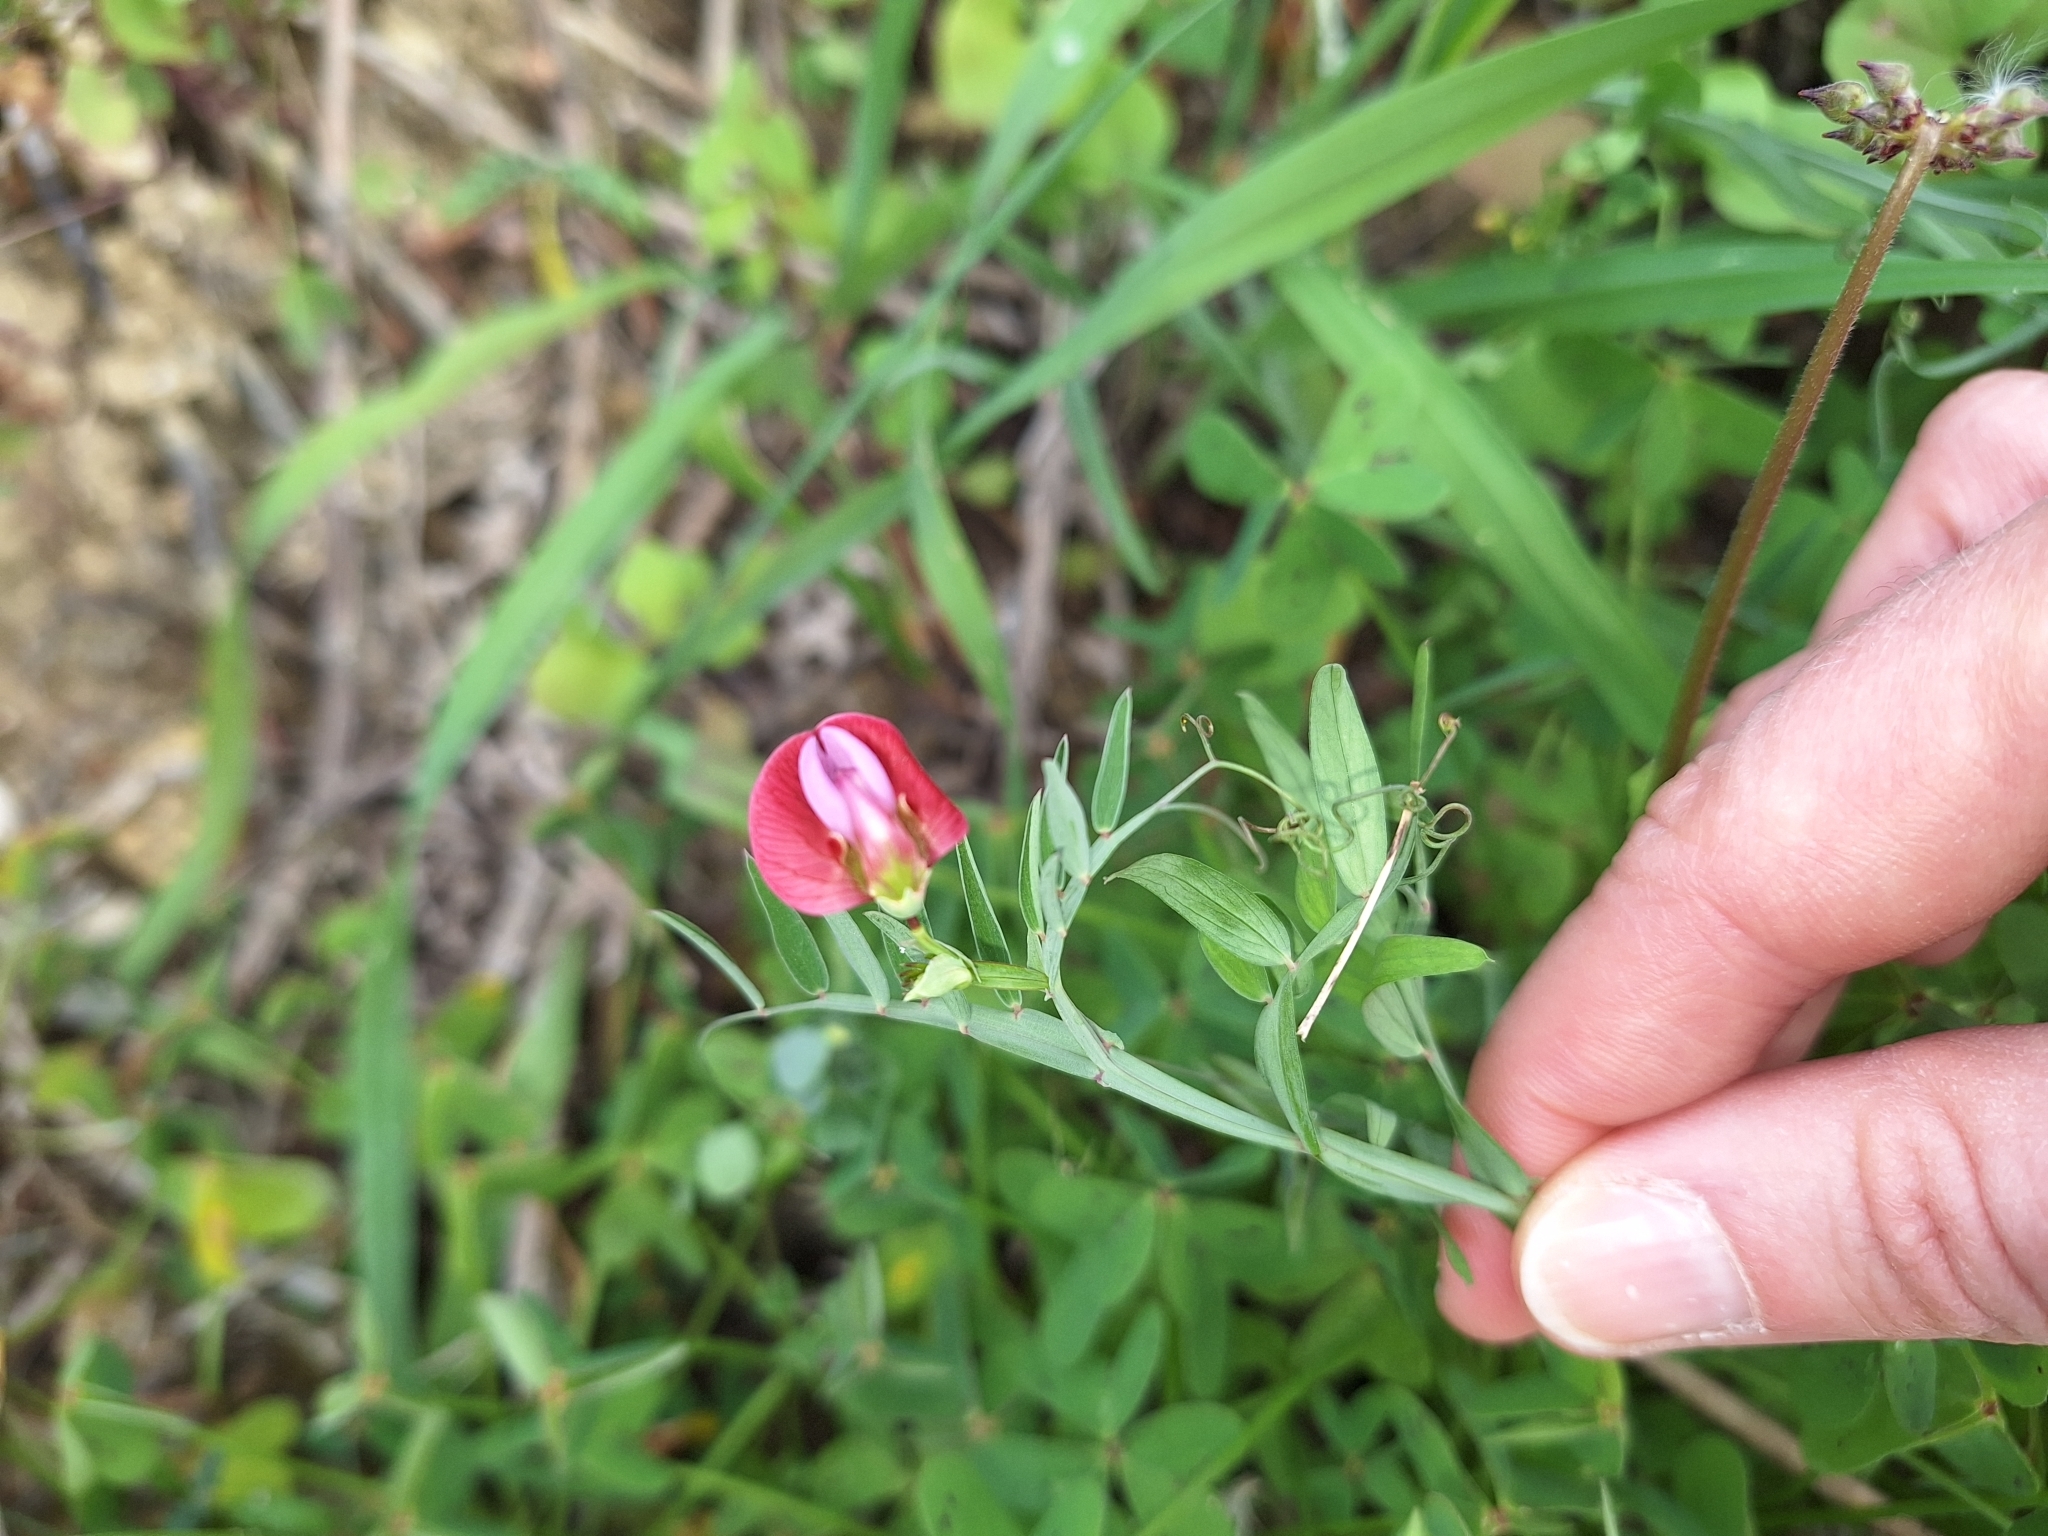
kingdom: Plantae
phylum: Tracheophyta
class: Magnoliopsida
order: Fabales
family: Fabaceae
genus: Lathyrus
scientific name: Lathyrus clymenum
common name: Spanish vetchling
